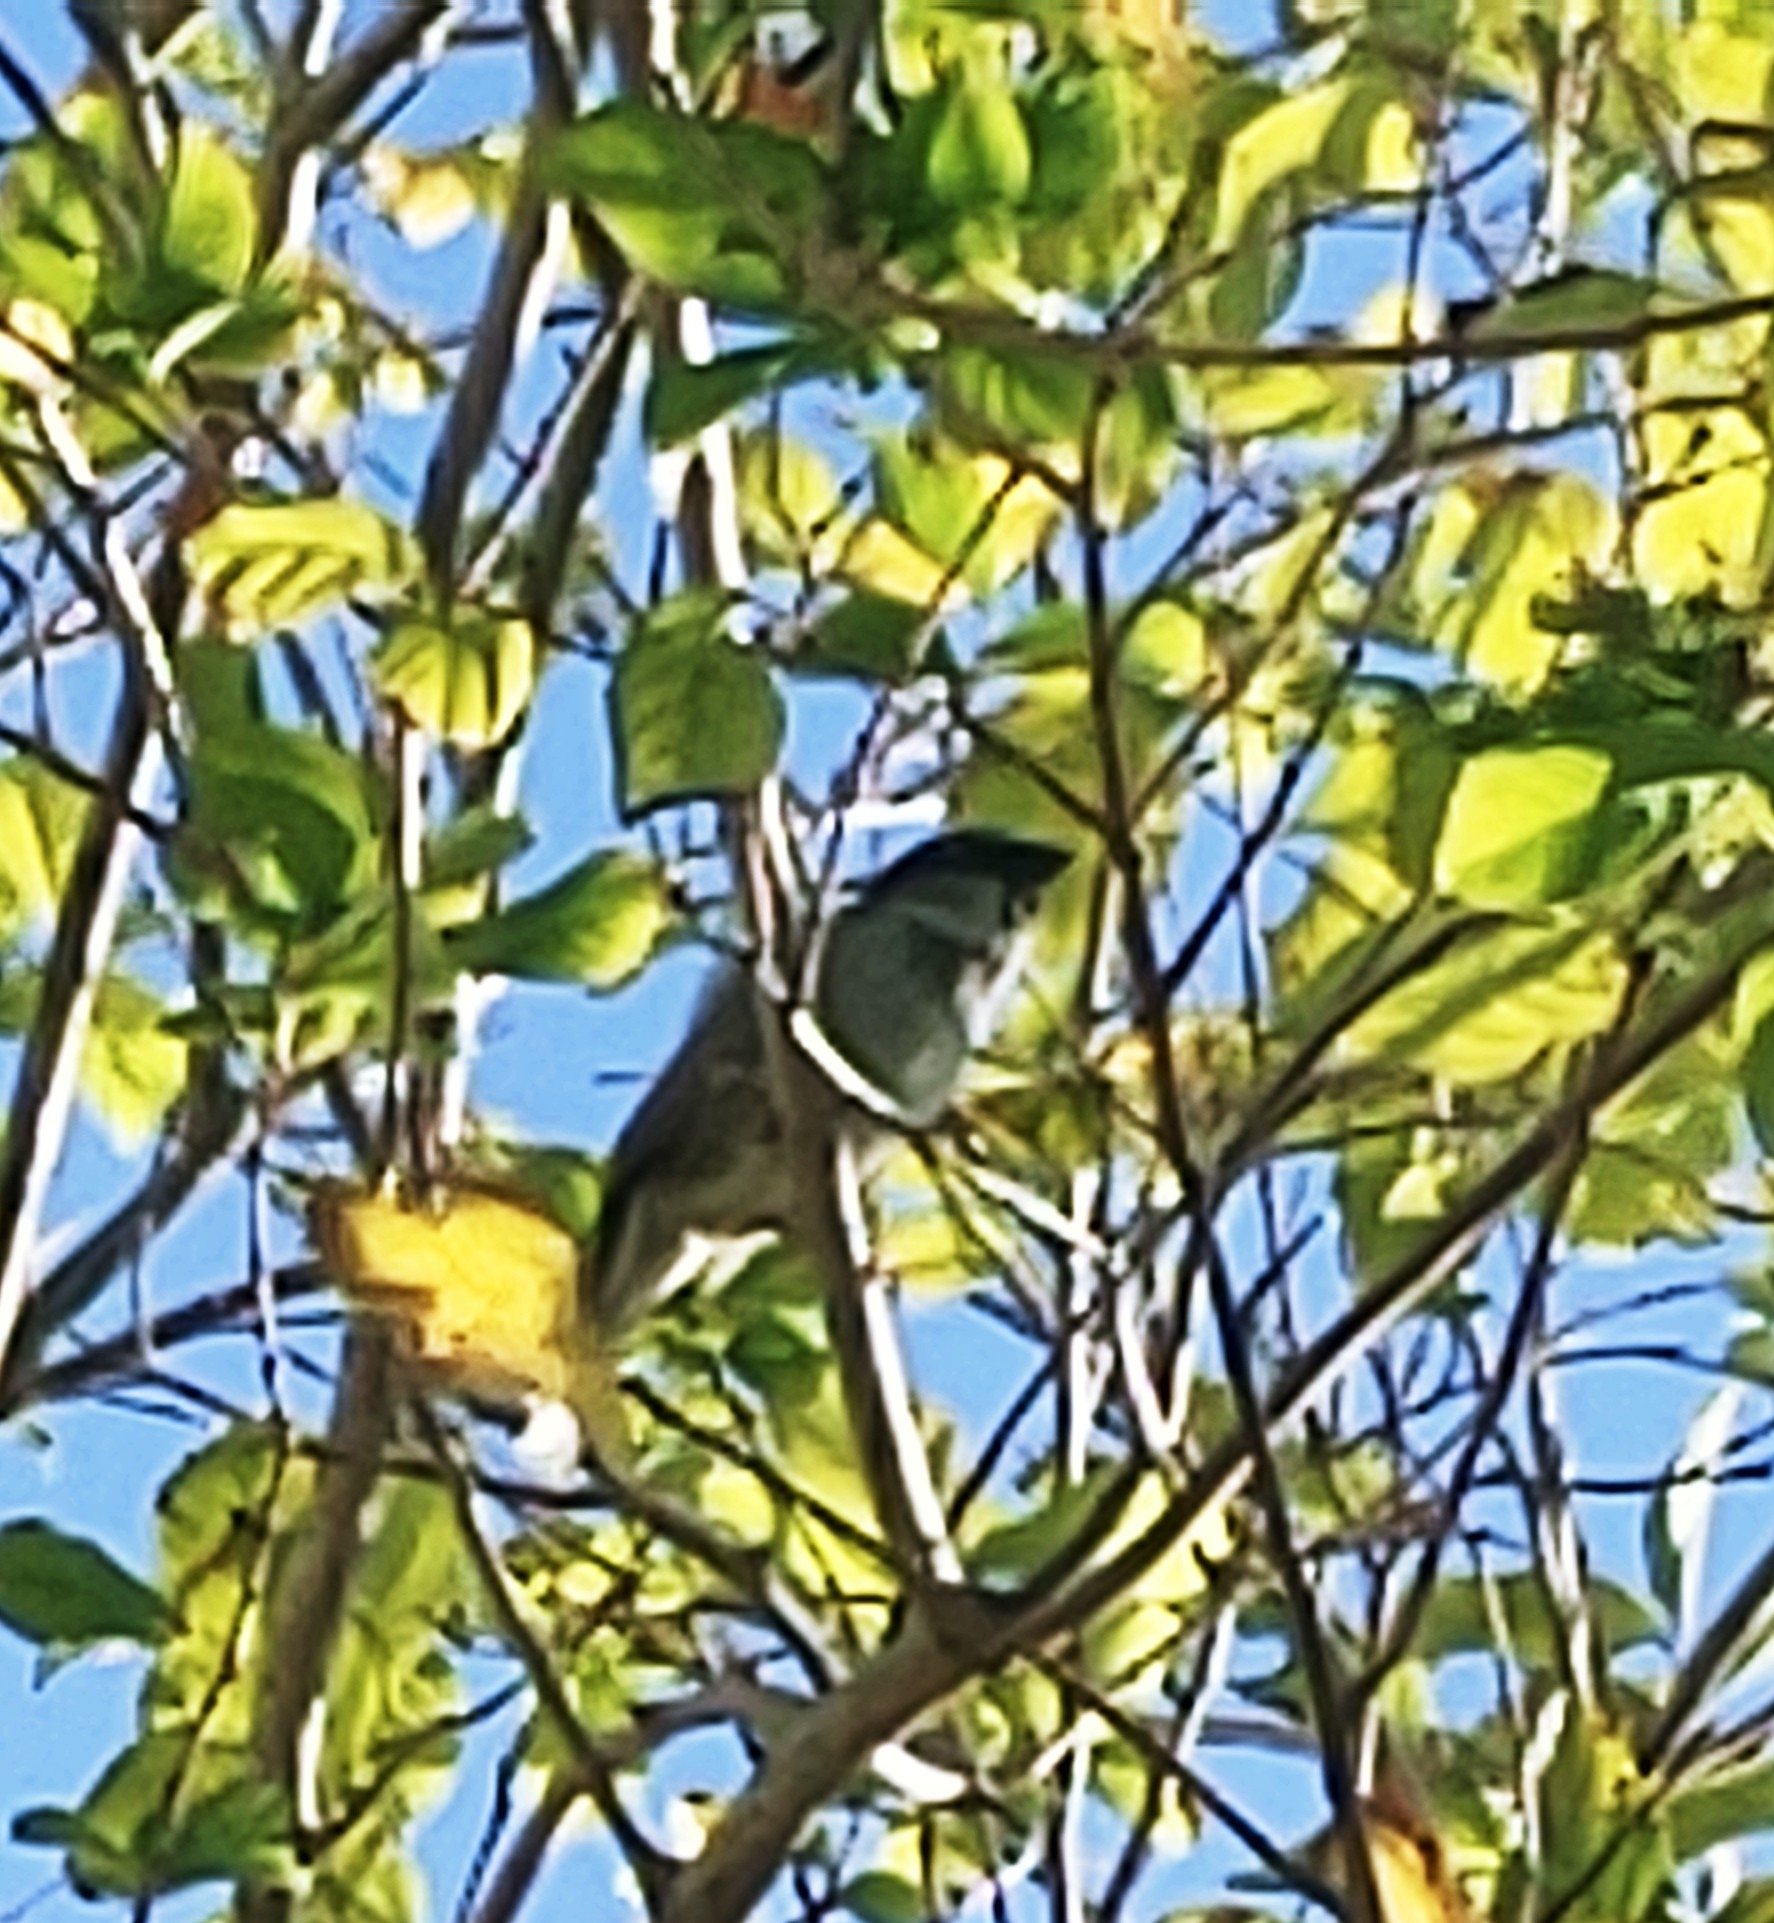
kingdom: Animalia
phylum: Chordata
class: Aves
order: Passeriformes
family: Passeridae
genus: Passer
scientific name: Passer domesticus
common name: House sparrow
